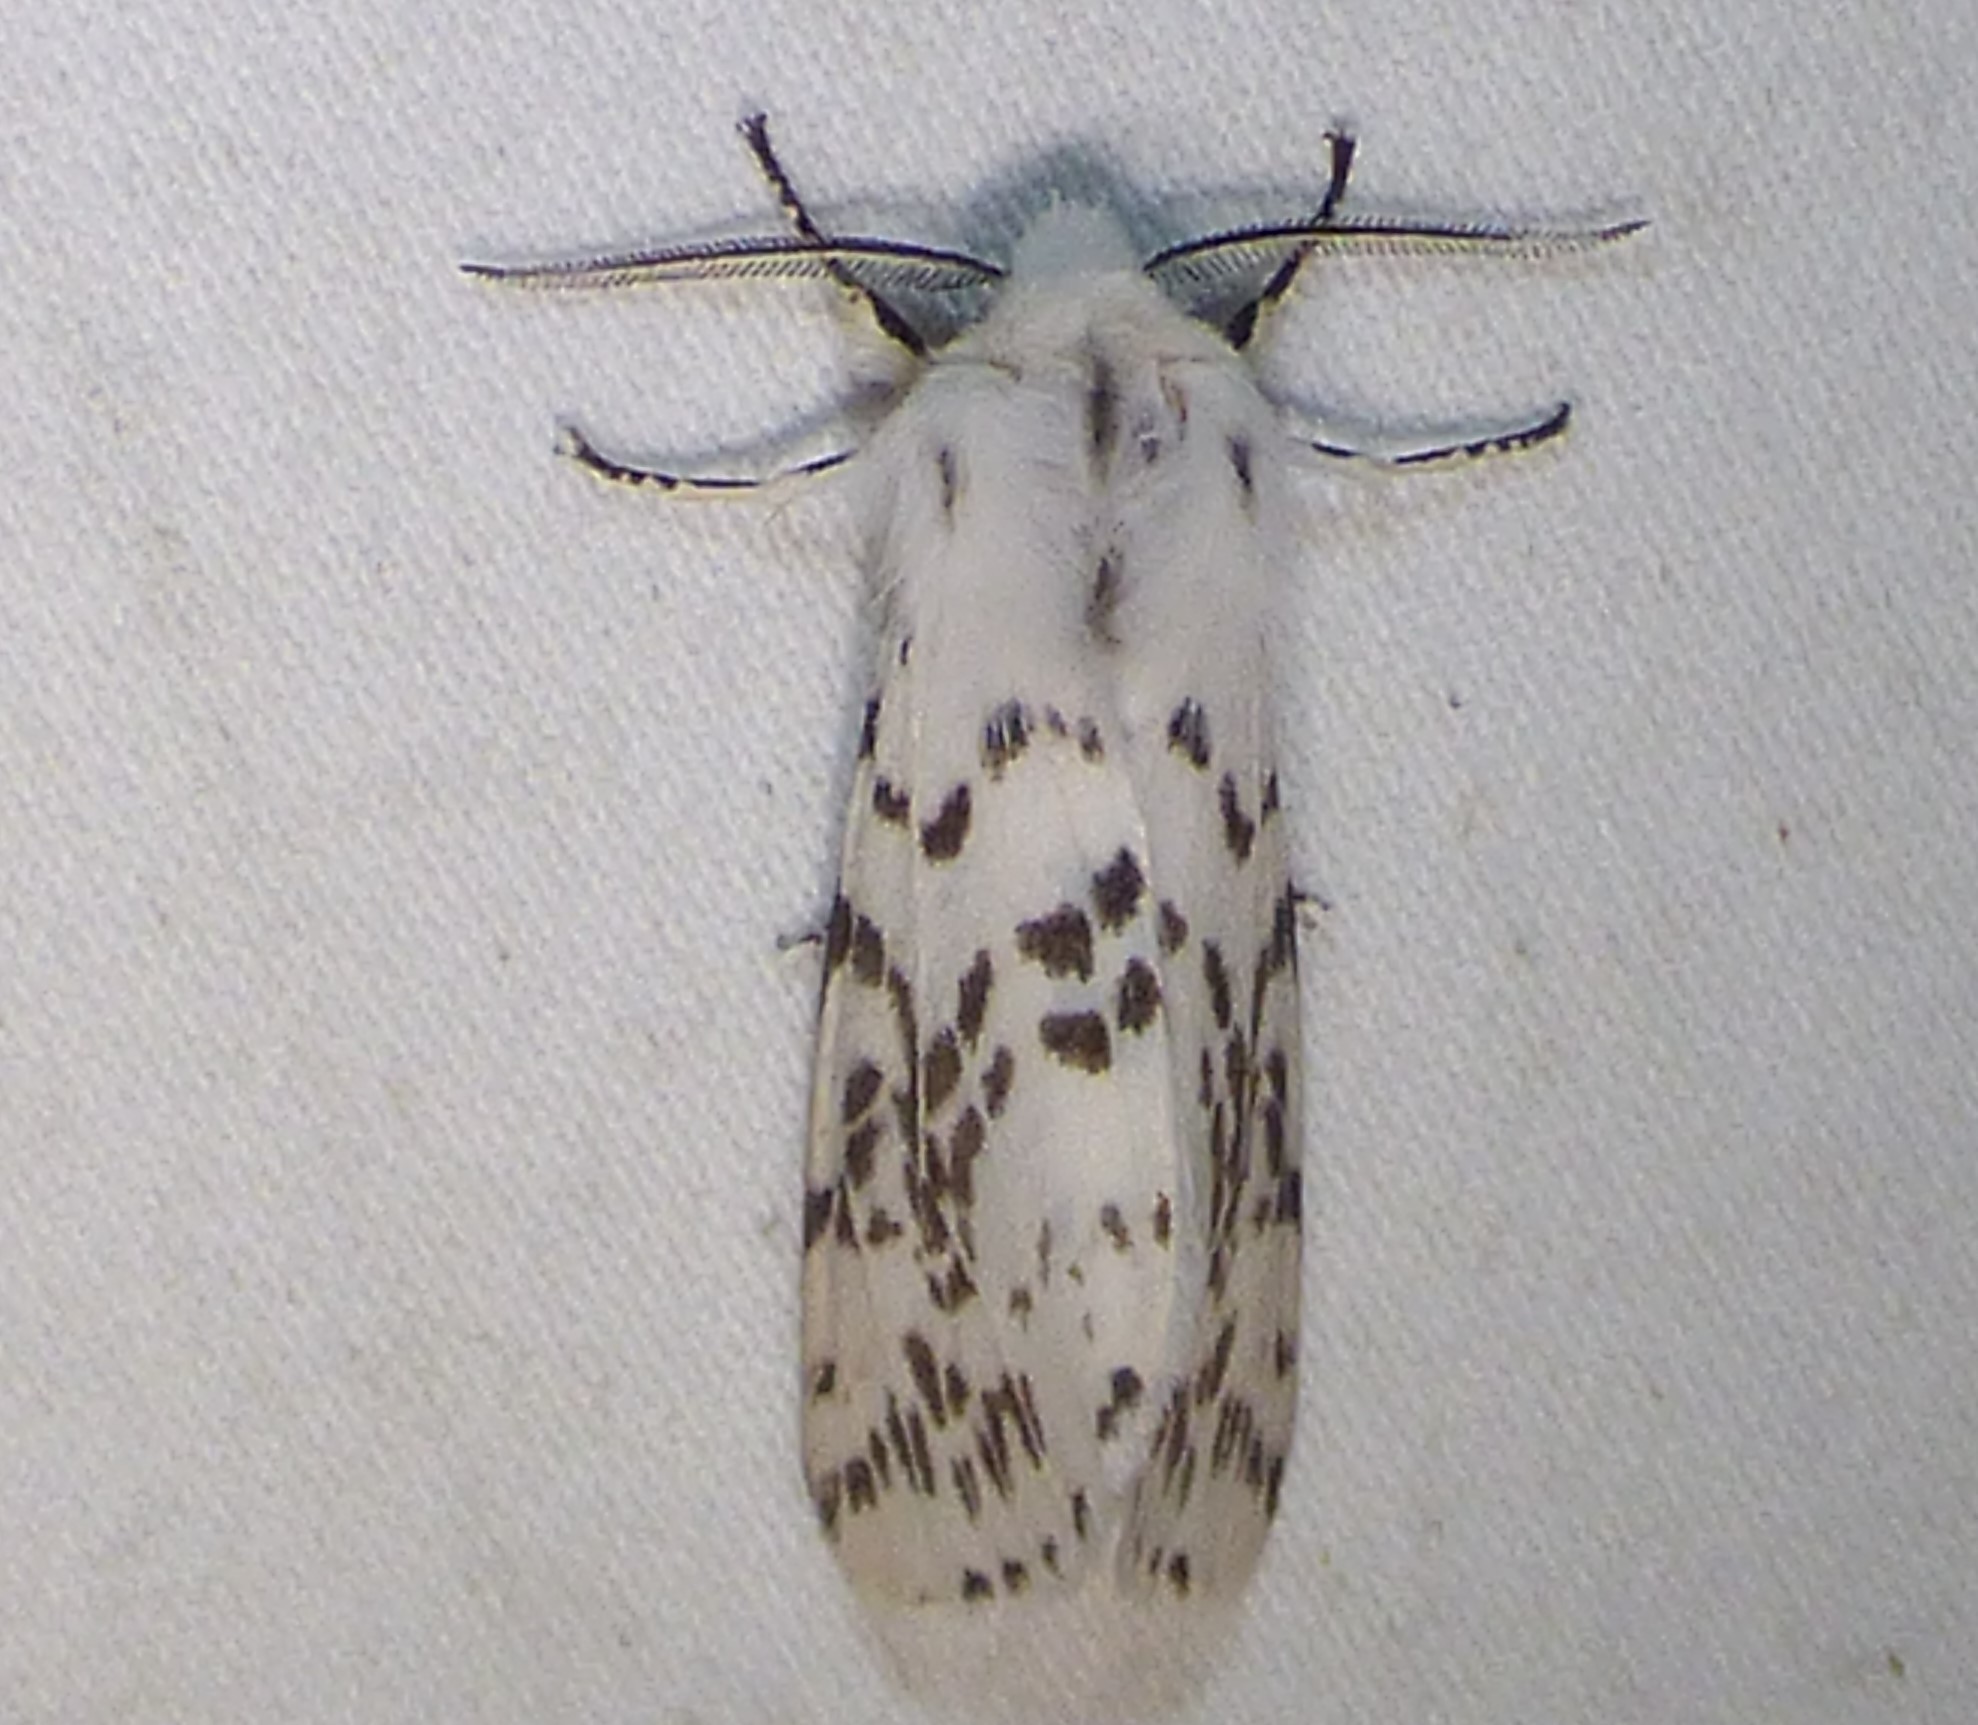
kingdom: Animalia
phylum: Arthropoda
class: Insecta
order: Lepidoptera
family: Erebidae
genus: Hyphantria
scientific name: Hyphantria cunea
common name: American white moth
